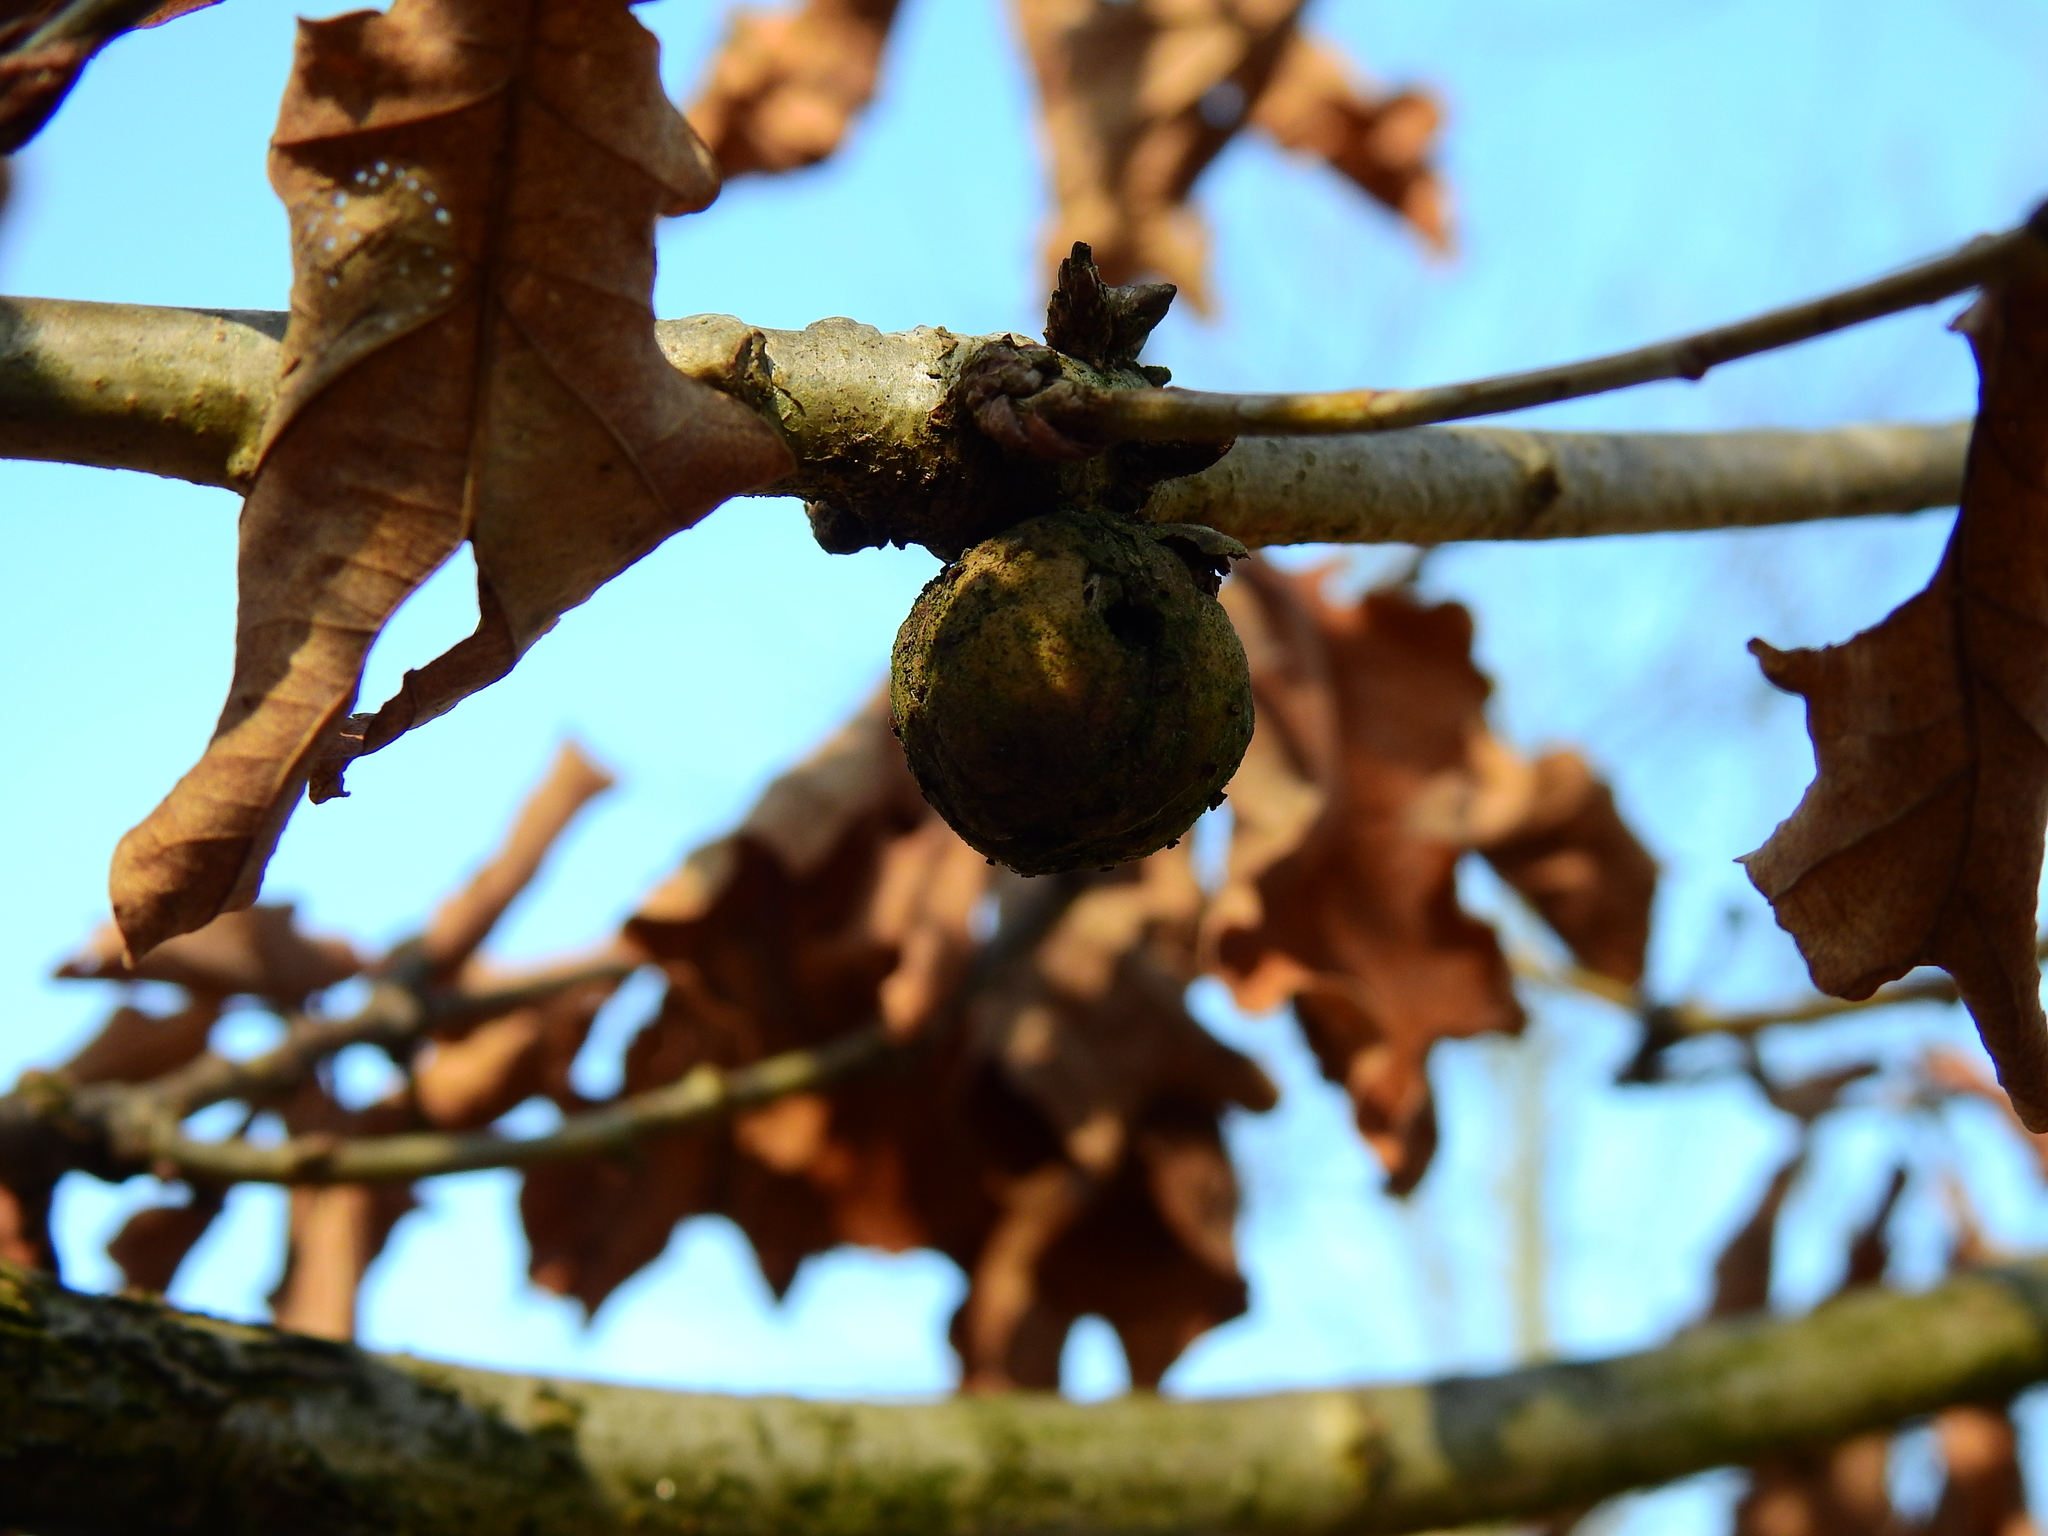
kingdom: Animalia
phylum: Arthropoda
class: Insecta
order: Hymenoptera
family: Cynipidae
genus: Andricus
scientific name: Andricus kollari
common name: Marble gall
